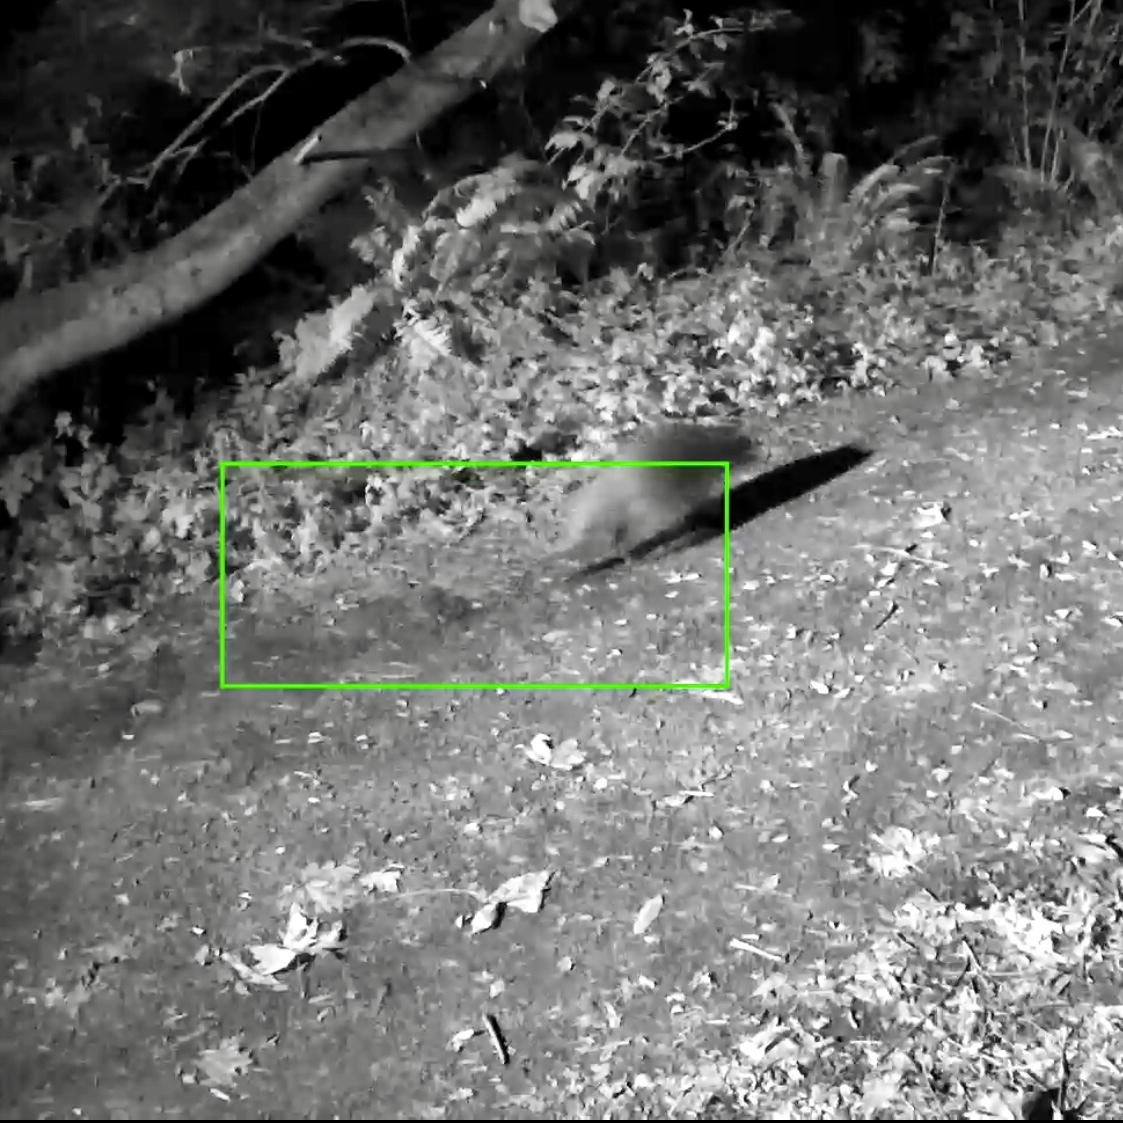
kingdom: Animalia
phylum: Chordata
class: Mammalia
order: Carnivora
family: Procyonidae
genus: Procyon
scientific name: Procyon lotor
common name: Raccoon
